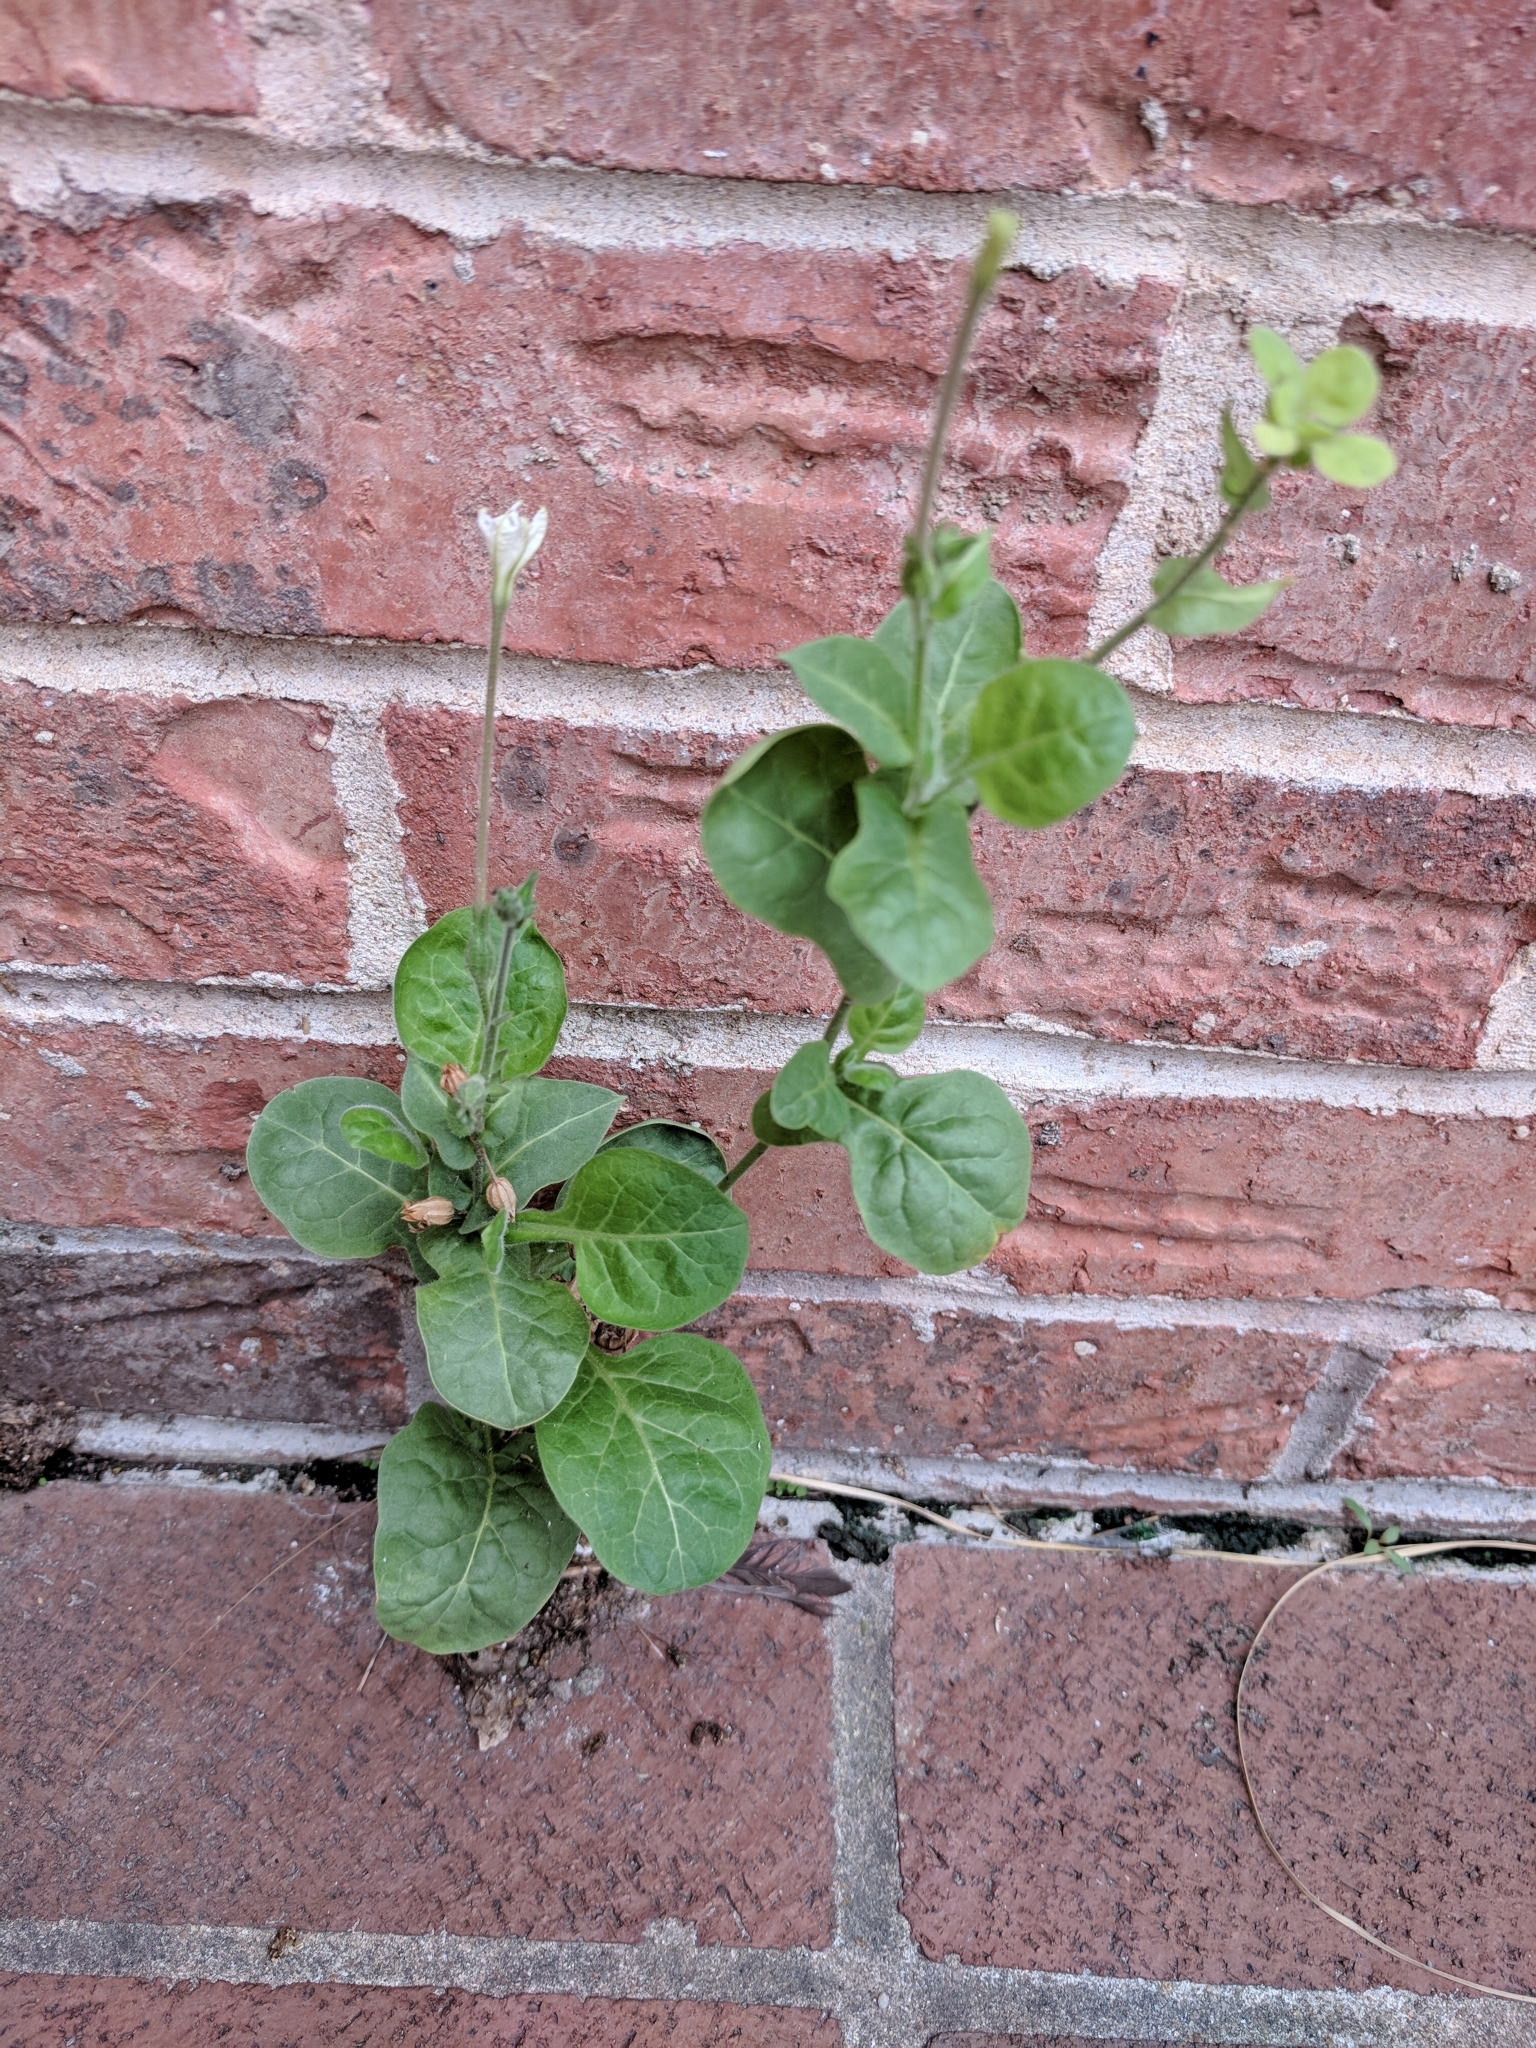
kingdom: Plantae
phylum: Tracheophyta
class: Magnoliopsida
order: Solanales
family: Solanaceae
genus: Nicotiana
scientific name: Nicotiana repanda
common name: Fiddle-leaf tobacco
